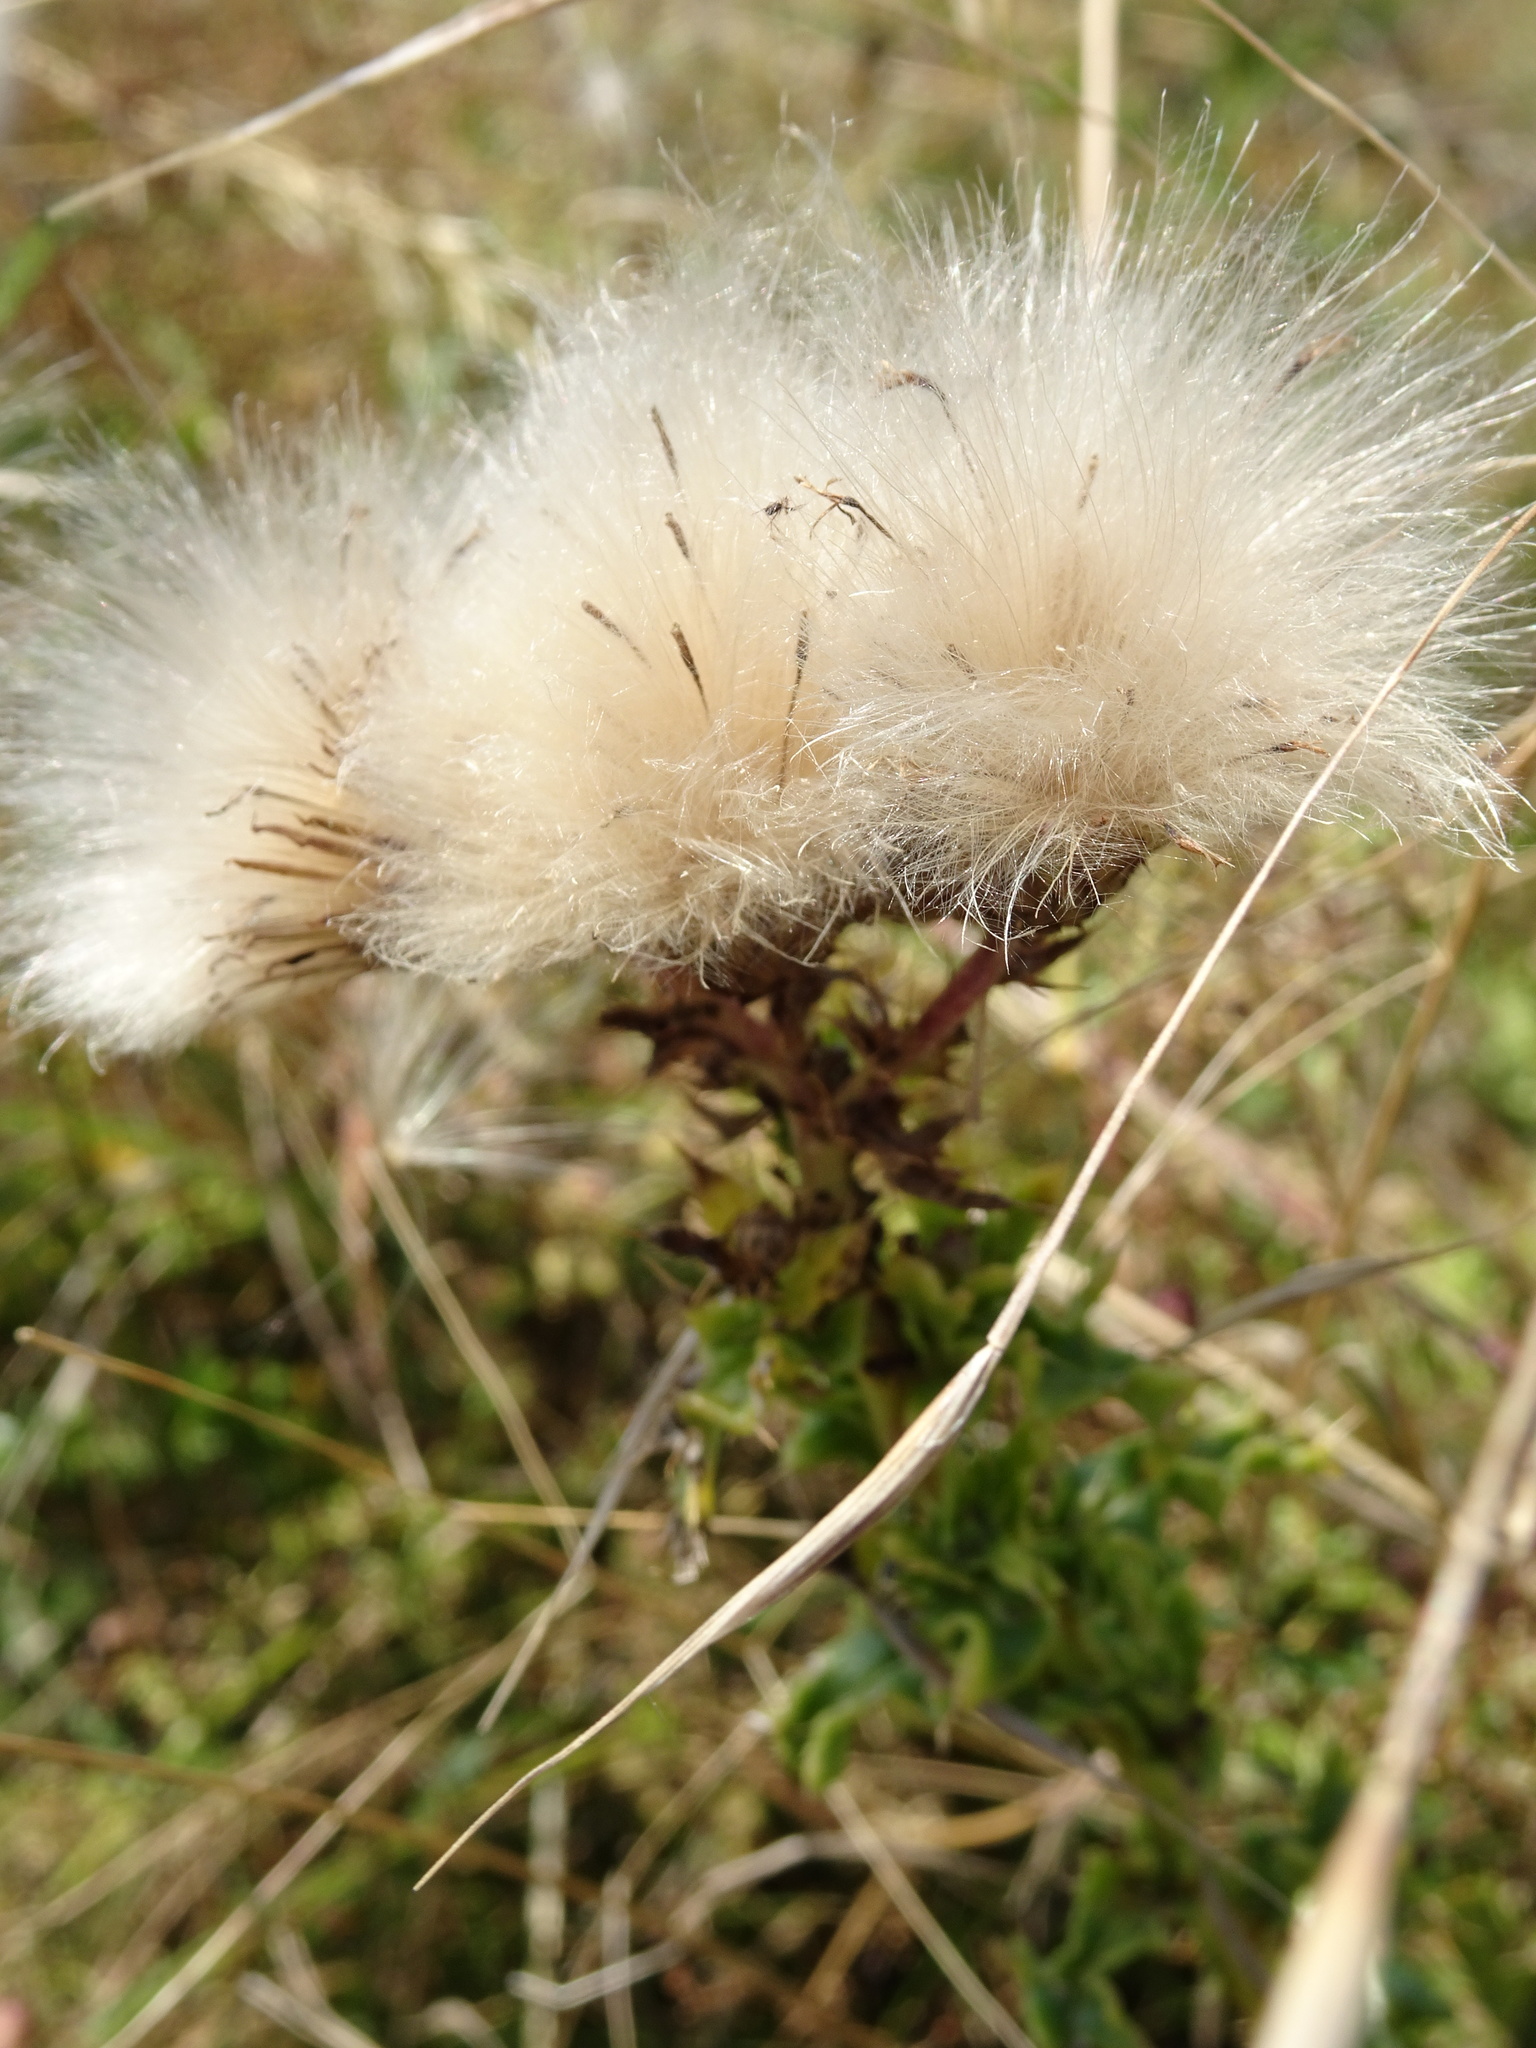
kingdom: Plantae
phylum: Tracheophyta
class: Magnoliopsida
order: Asterales
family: Asteraceae
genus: Cirsium
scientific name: Cirsium vulgare
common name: Bull thistle
